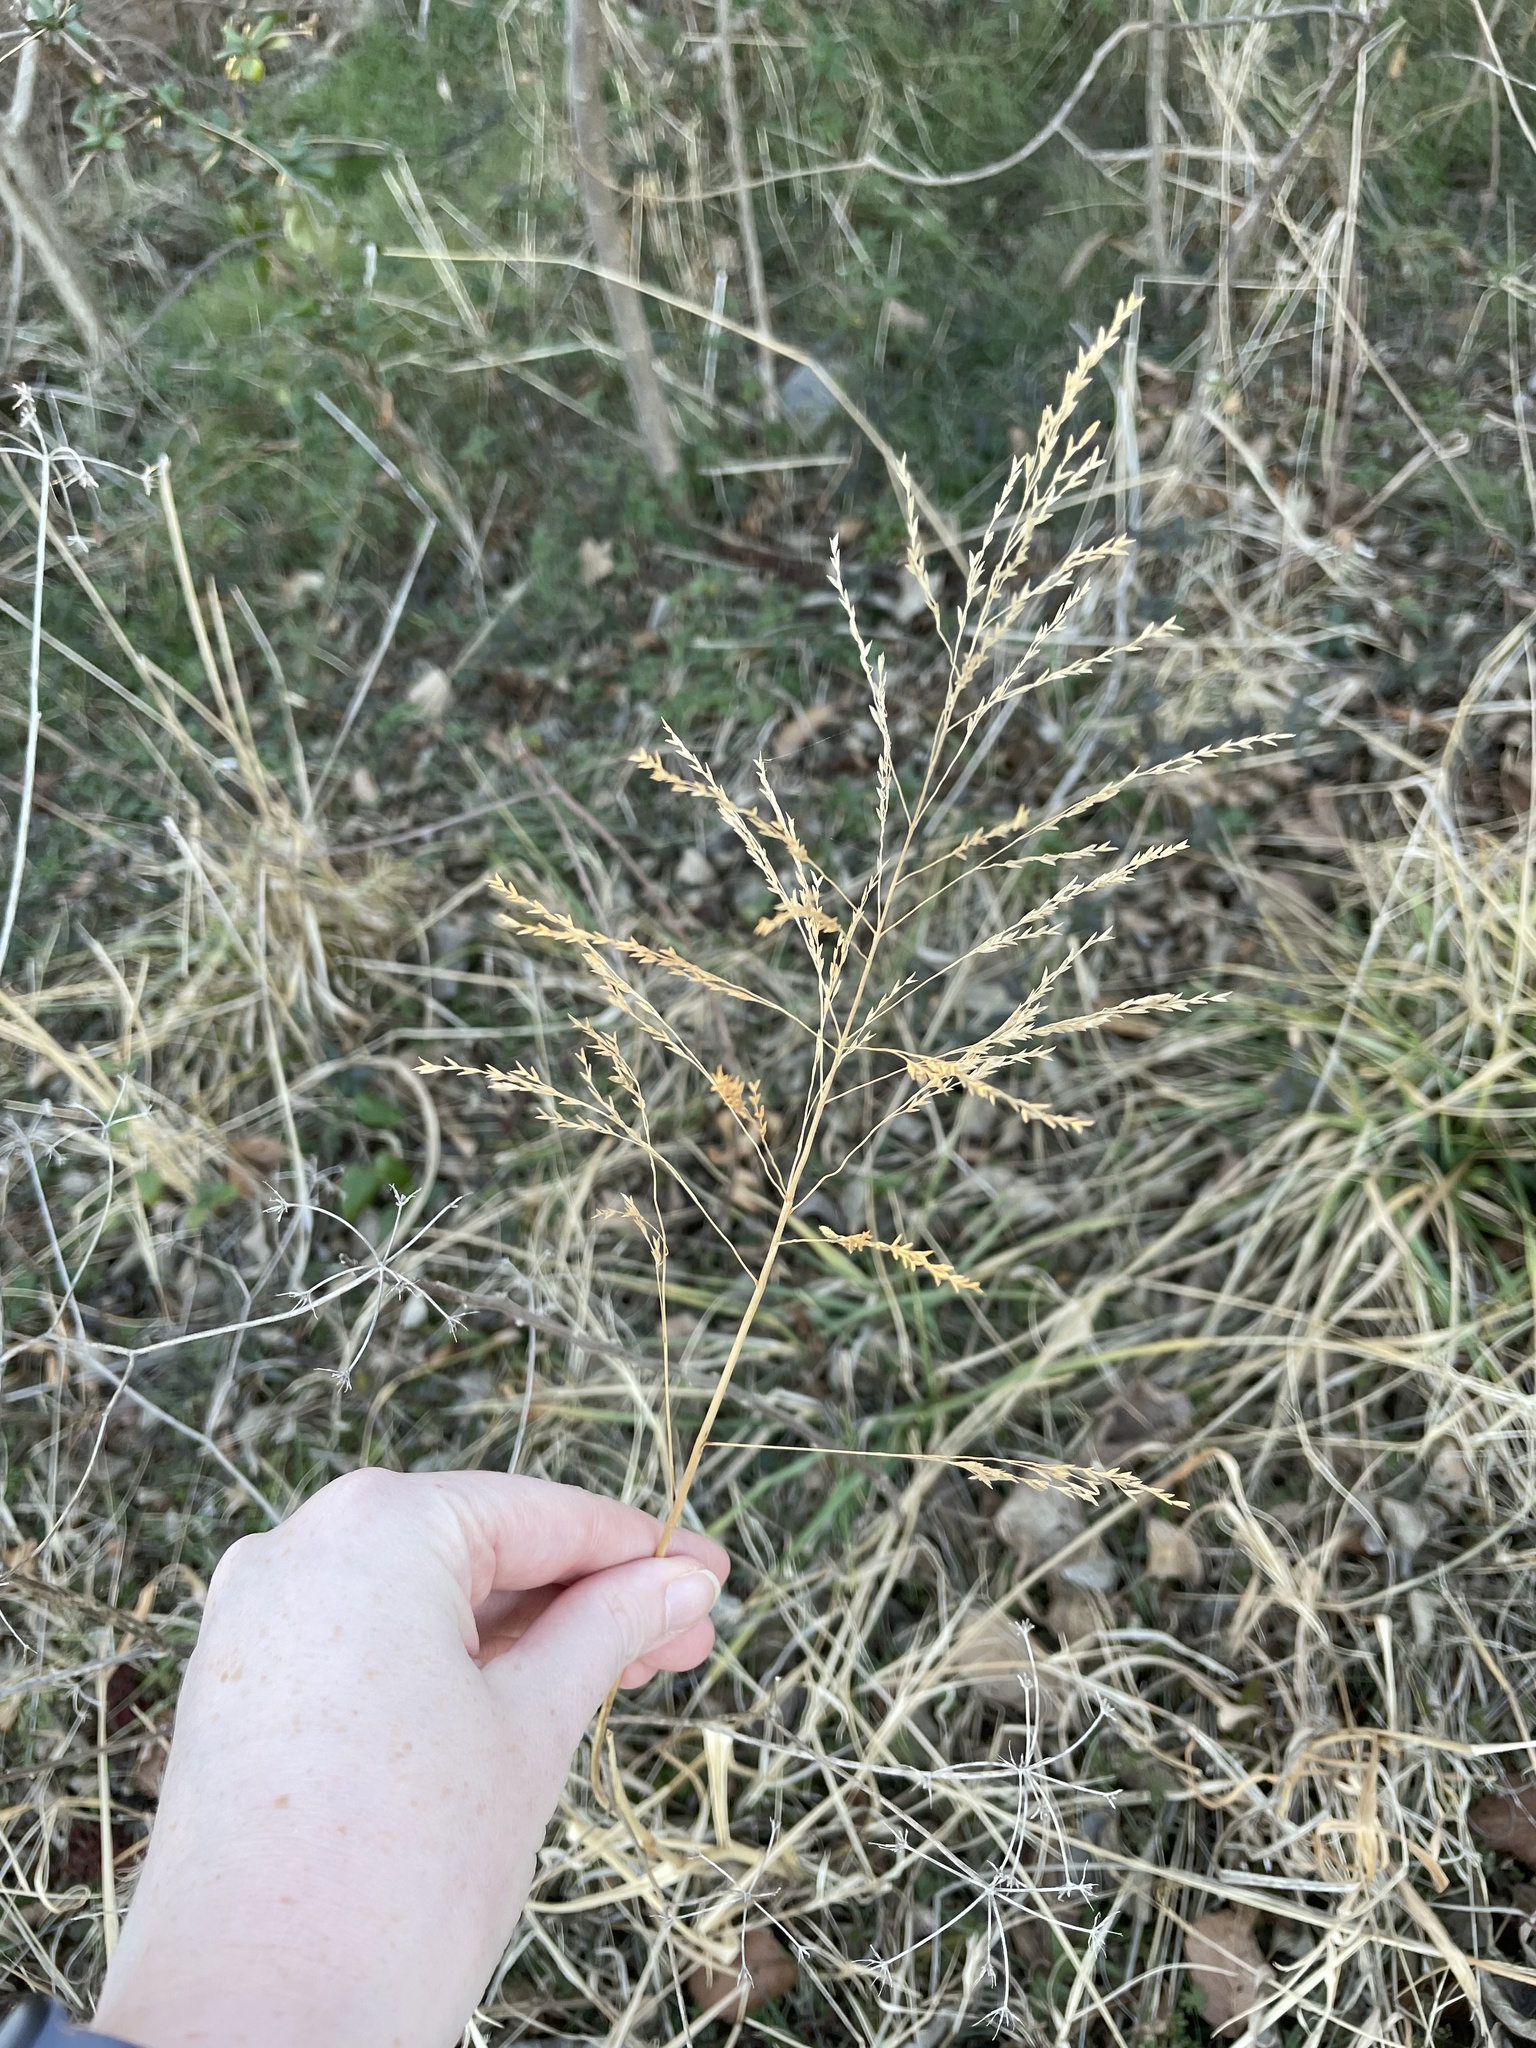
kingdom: Plantae
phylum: Tracheophyta
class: Liliopsida
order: Poales
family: Poaceae
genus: Tridens
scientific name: Tridens flavus
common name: Purpletop
